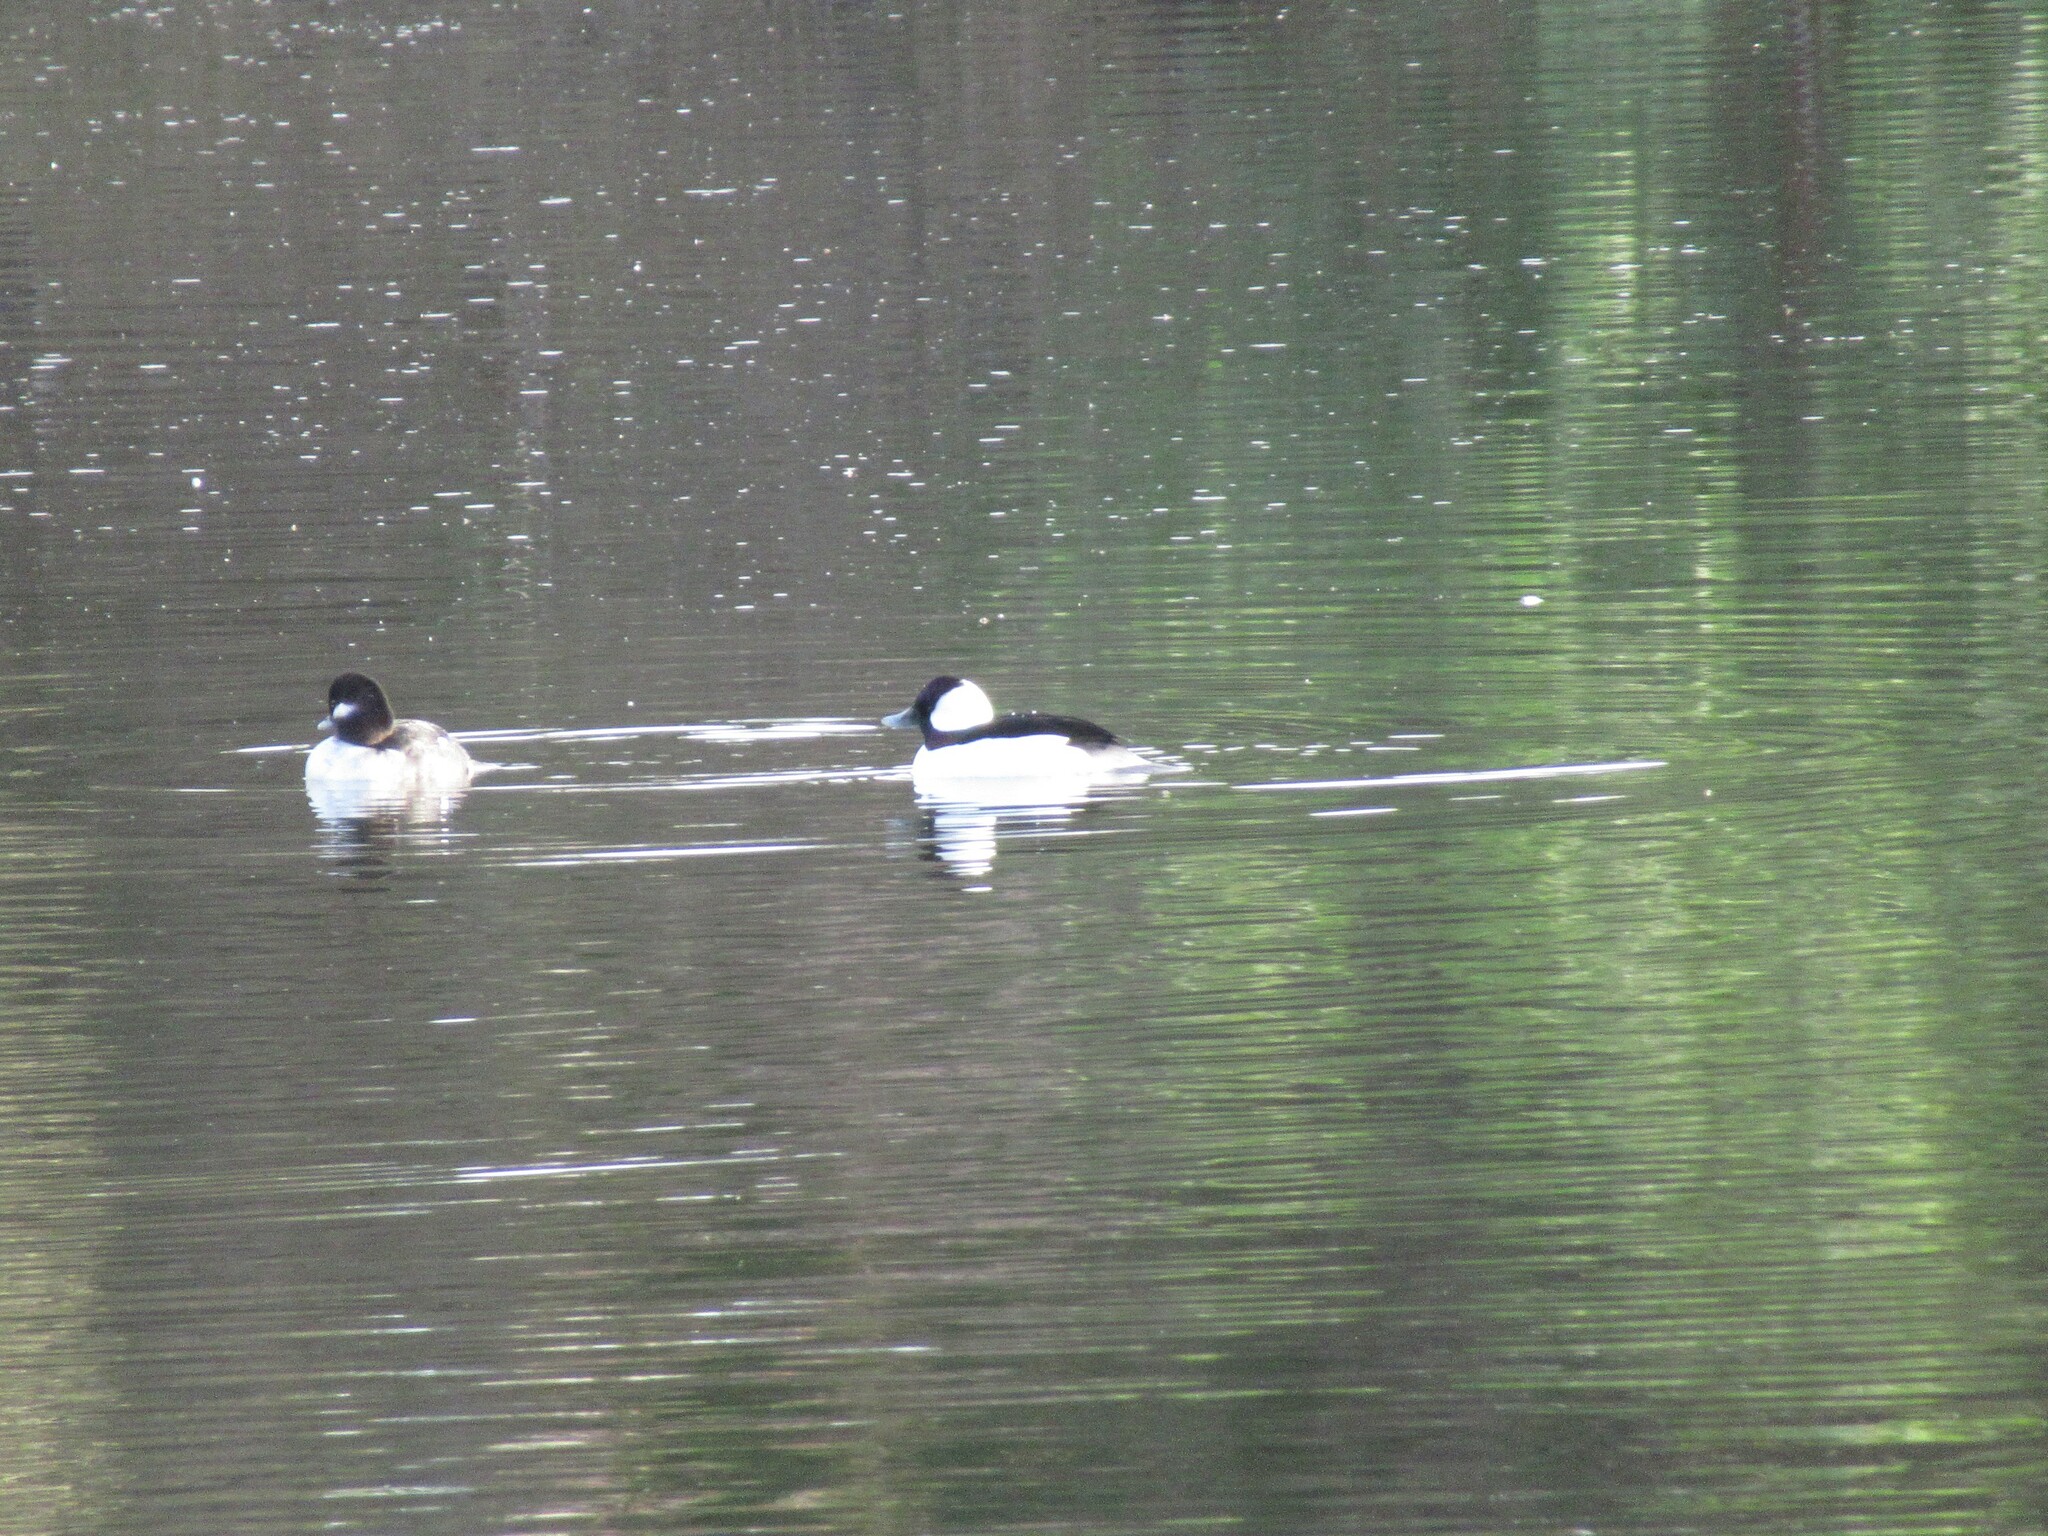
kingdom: Animalia
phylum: Chordata
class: Aves
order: Anseriformes
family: Anatidae
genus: Bucephala
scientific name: Bucephala albeola
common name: Bufflehead
